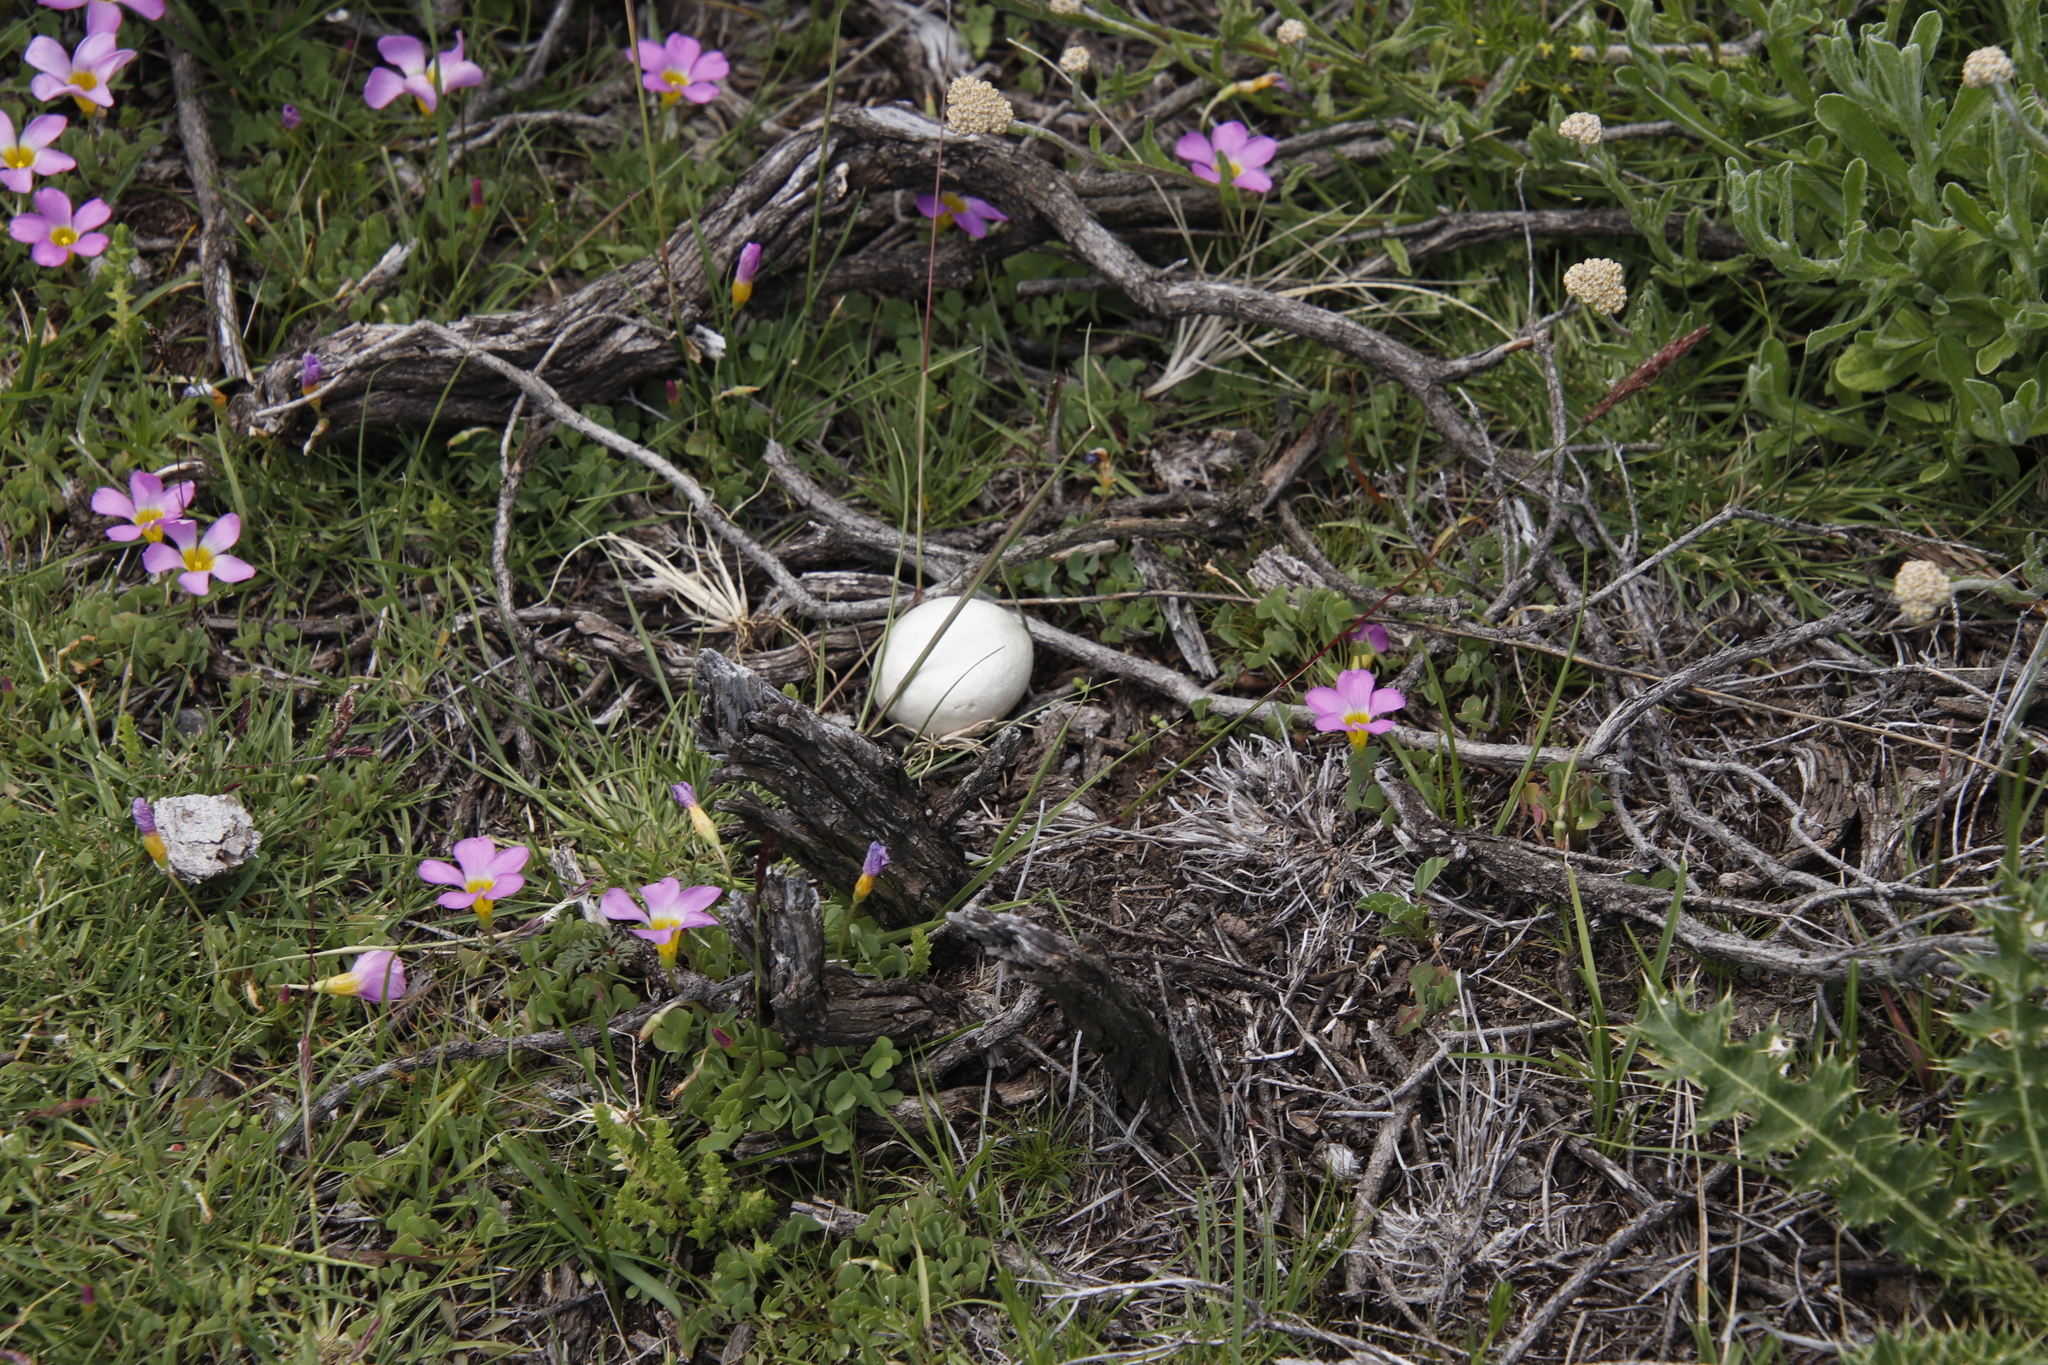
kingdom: Plantae
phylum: Tracheophyta
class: Magnoliopsida
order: Oxalidales
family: Oxalidaceae
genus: Oxalis
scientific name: Oxalis obliquifolia
